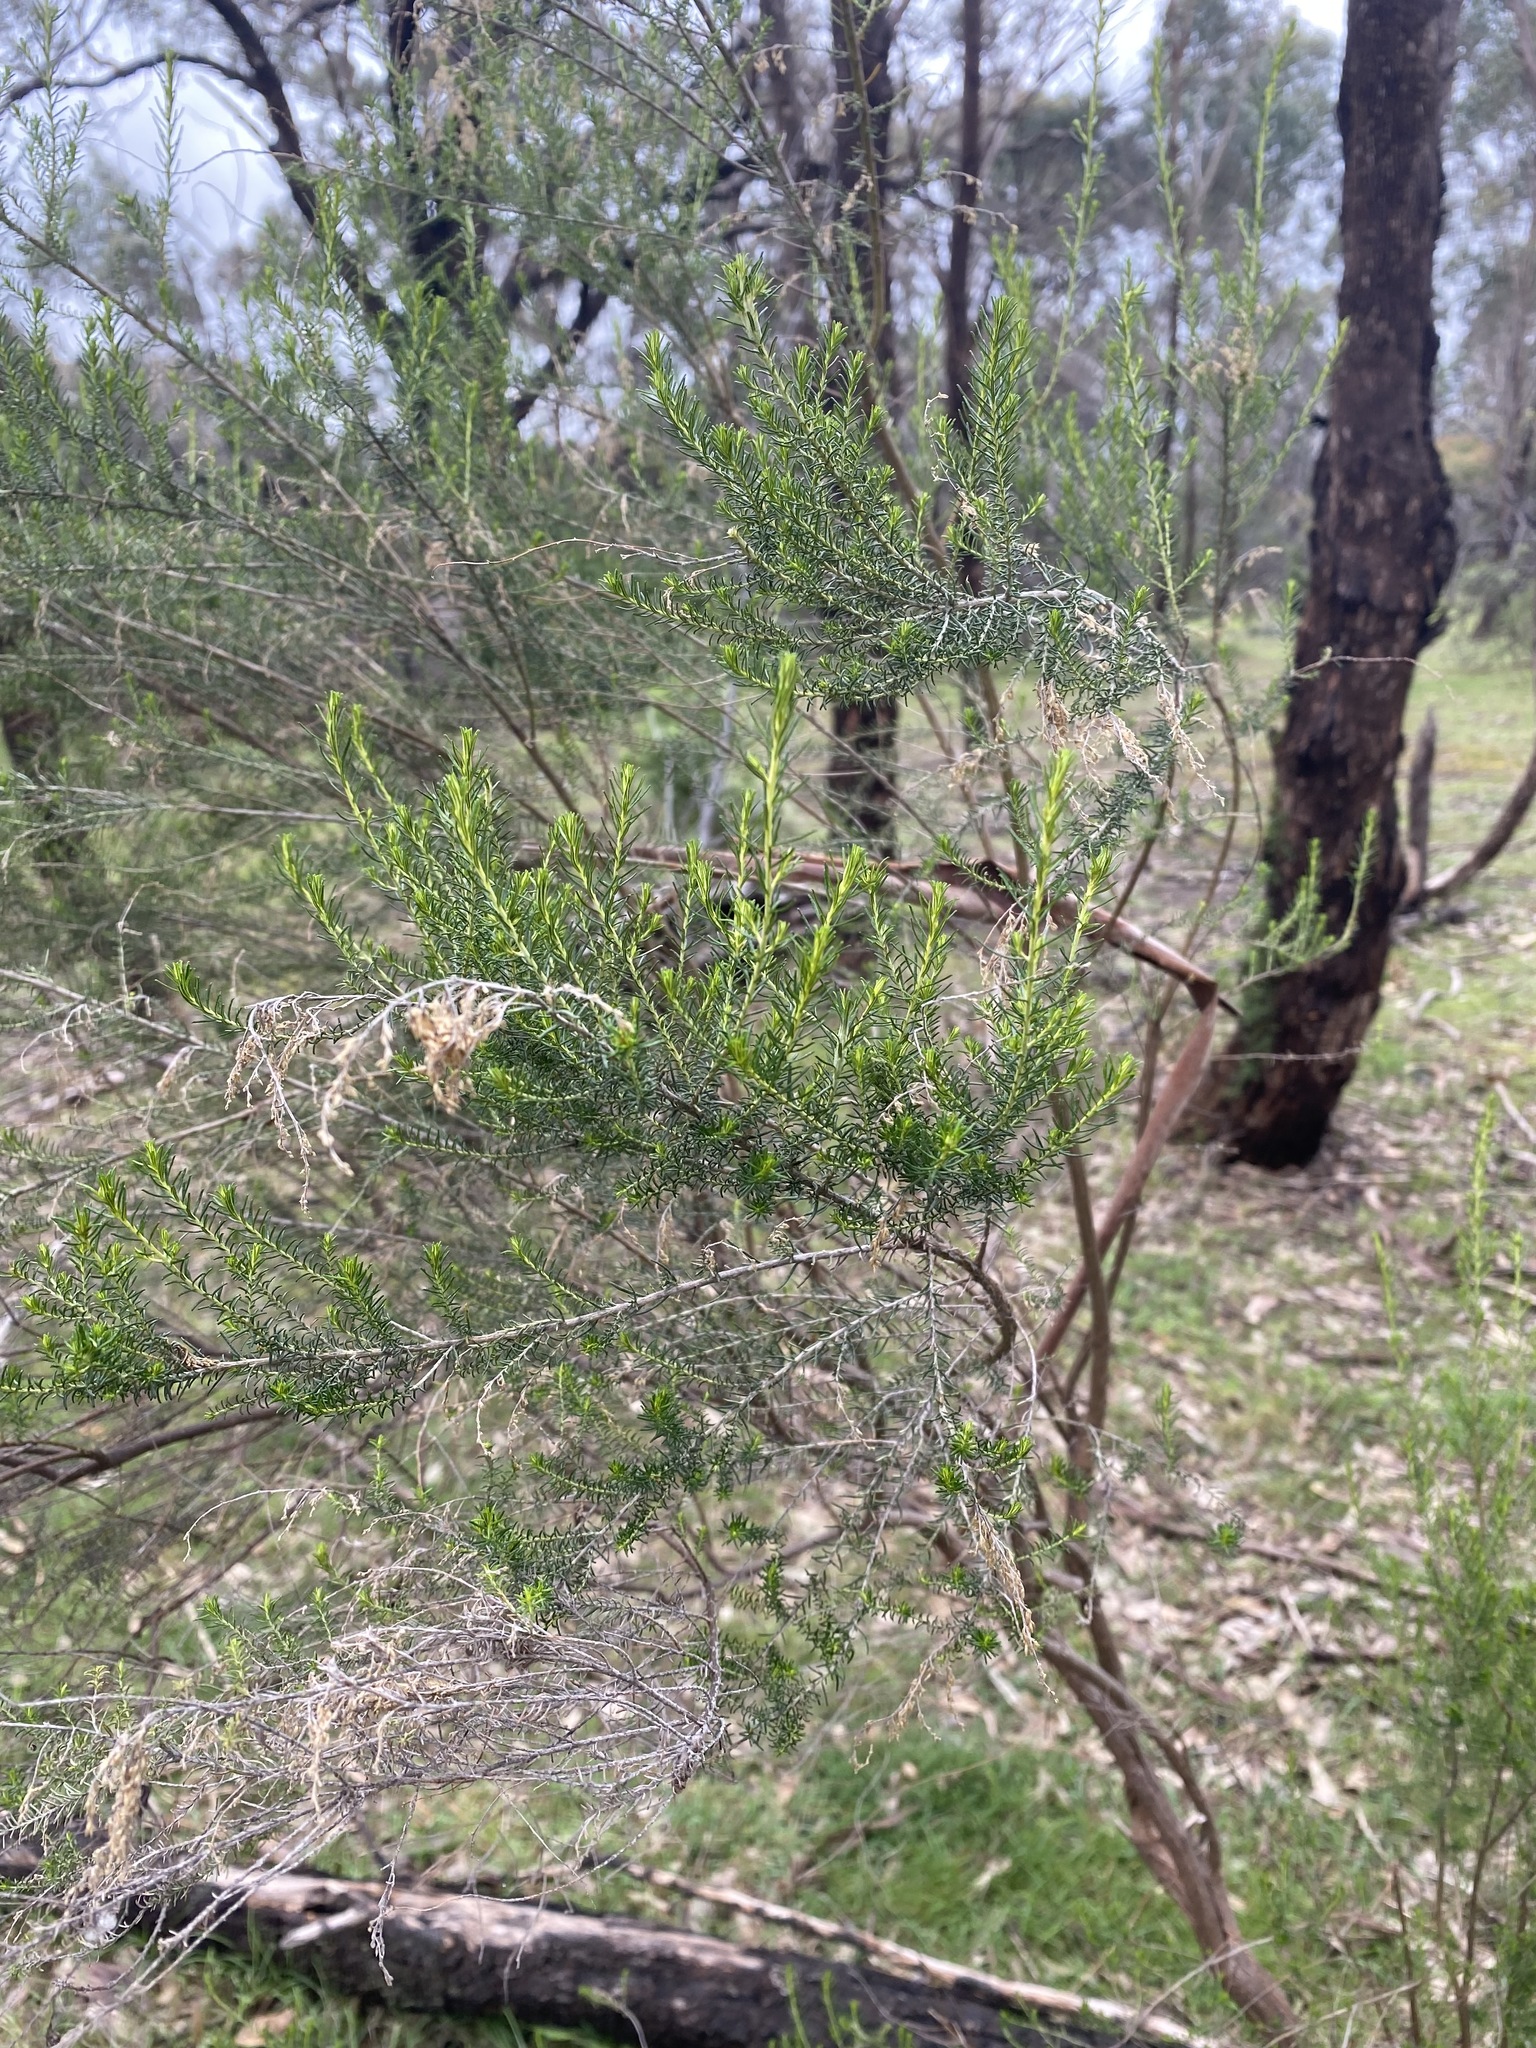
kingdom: Plantae
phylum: Tracheophyta
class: Magnoliopsida
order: Asterales
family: Asteraceae
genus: Cassinia
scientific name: Cassinia sifton
